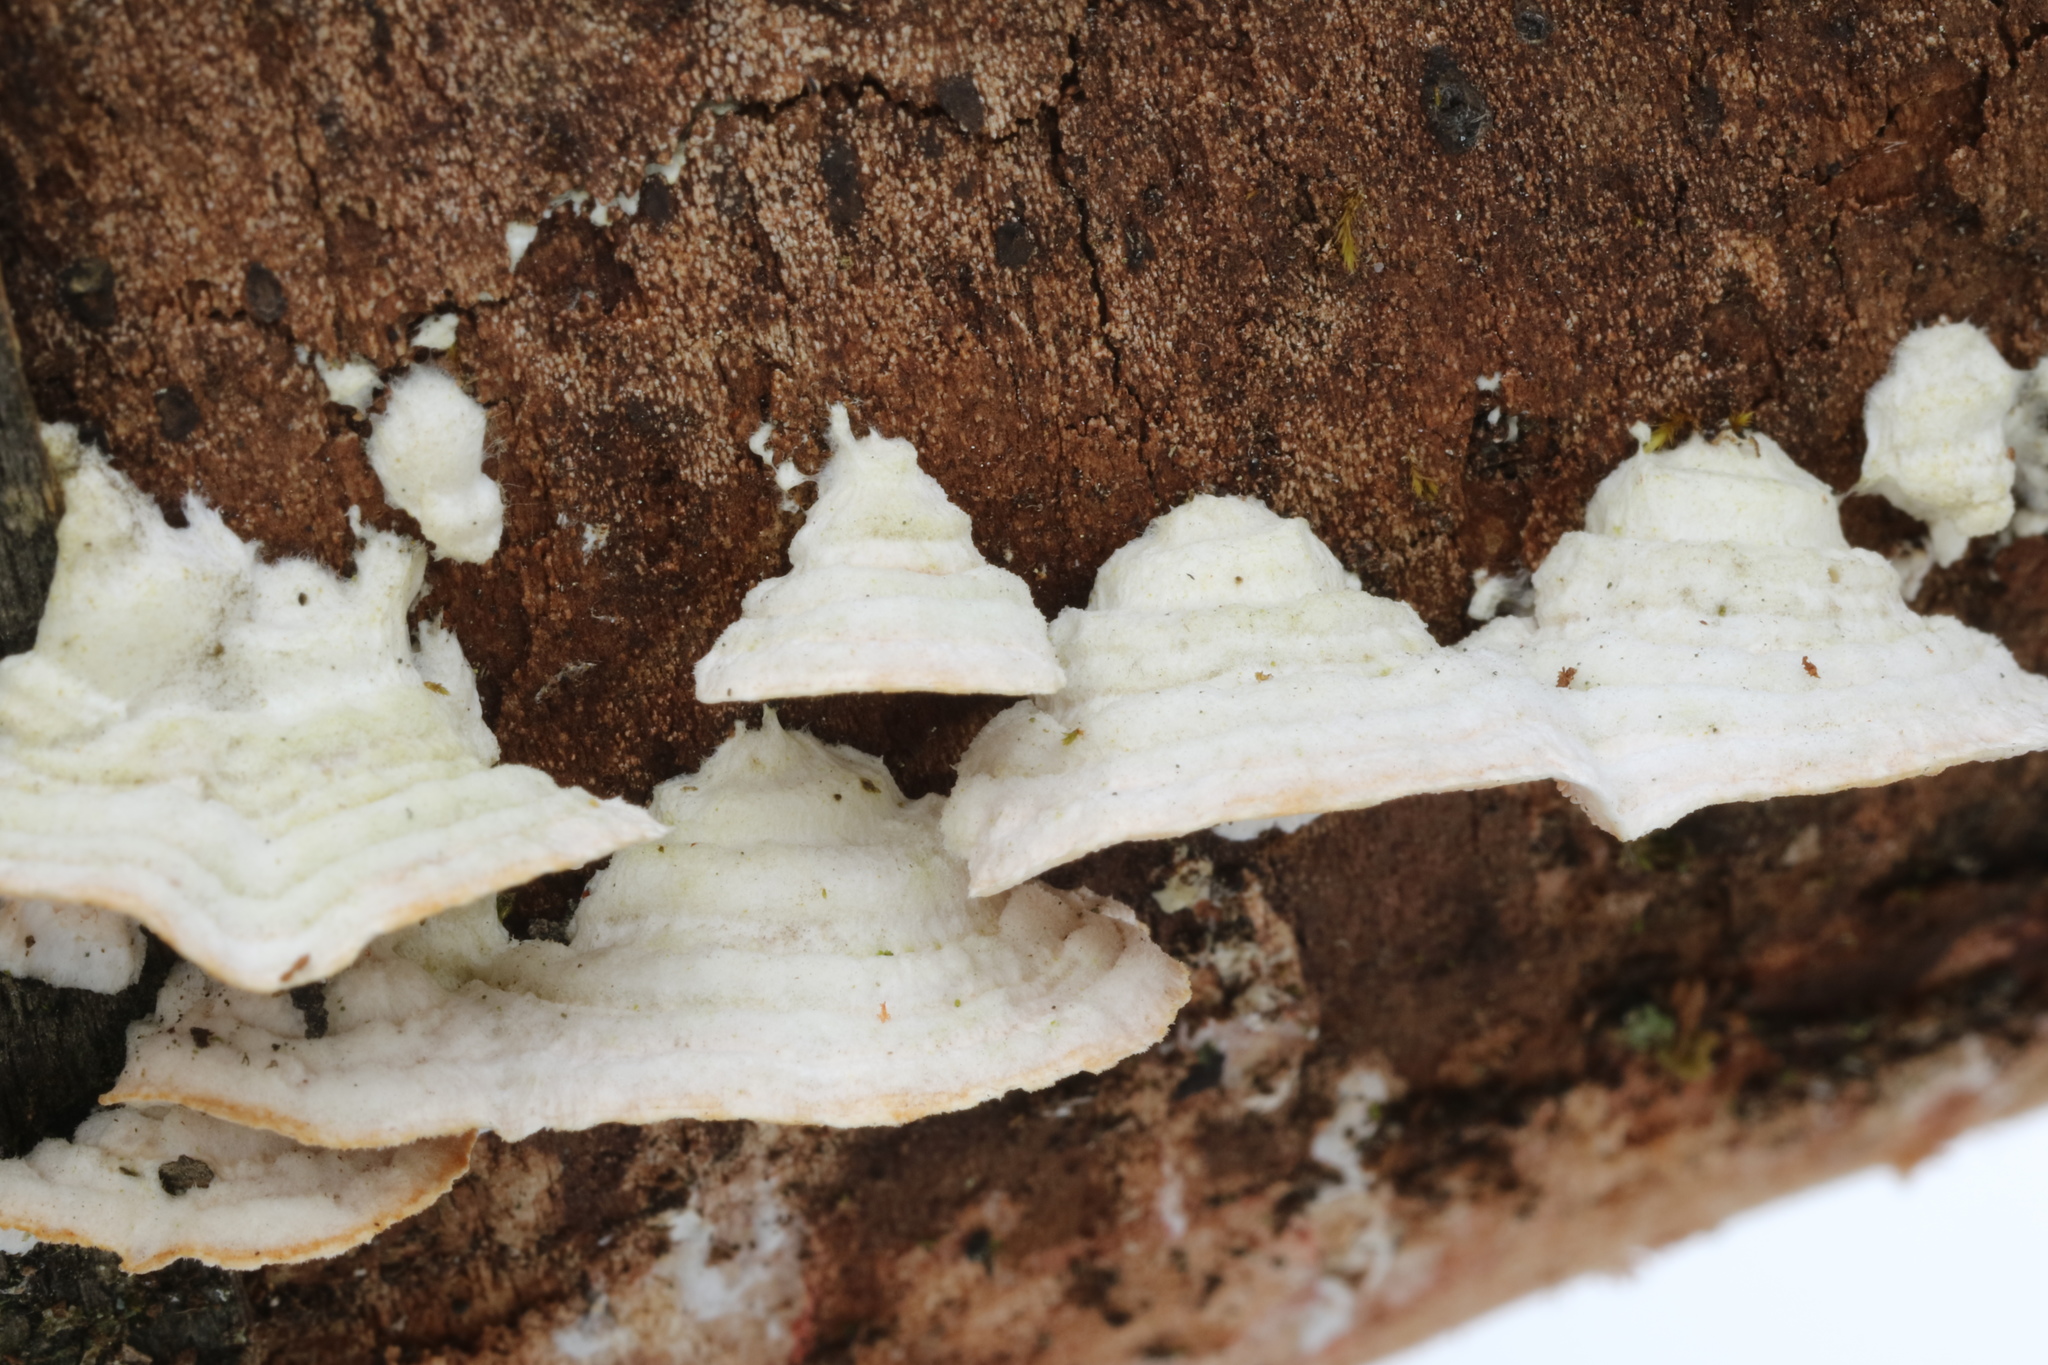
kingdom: Fungi
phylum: Basidiomycota
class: Agaricomycetes
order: Polyporales
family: Steccherinaceae
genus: Steccherinum
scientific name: Steccherinum ochraceum
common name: Ochre spreading tooth
